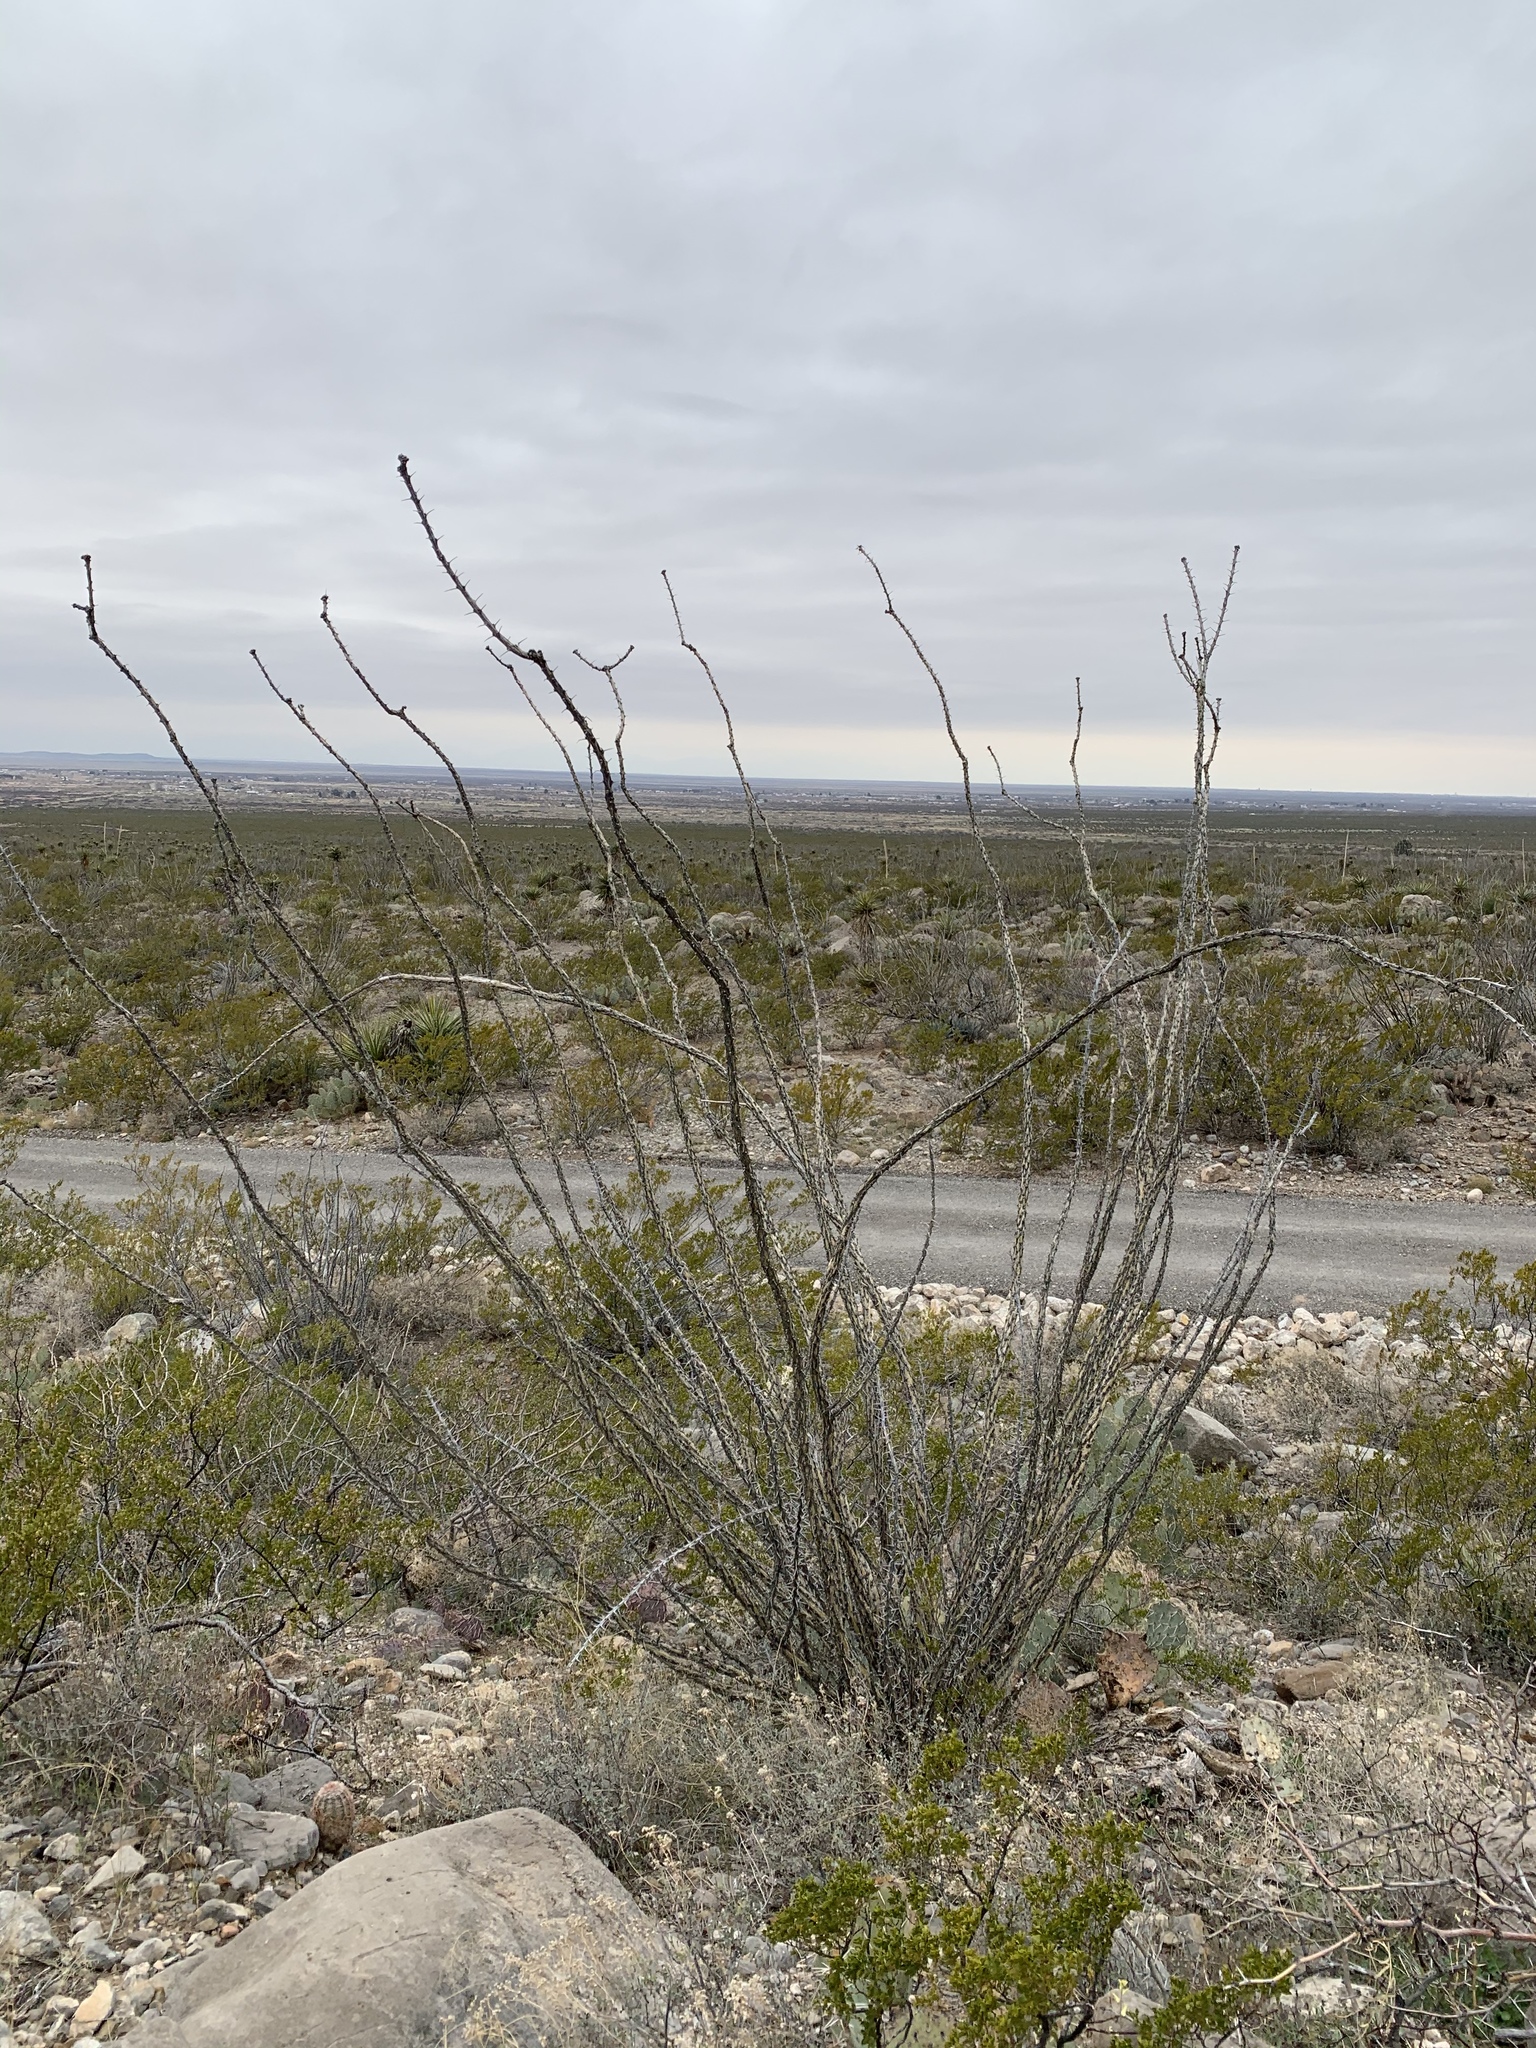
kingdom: Plantae
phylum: Tracheophyta
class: Magnoliopsida
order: Ericales
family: Fouquieriaceae
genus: Fouquieria
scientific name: Fouquieria splendens
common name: Vine-cactus
